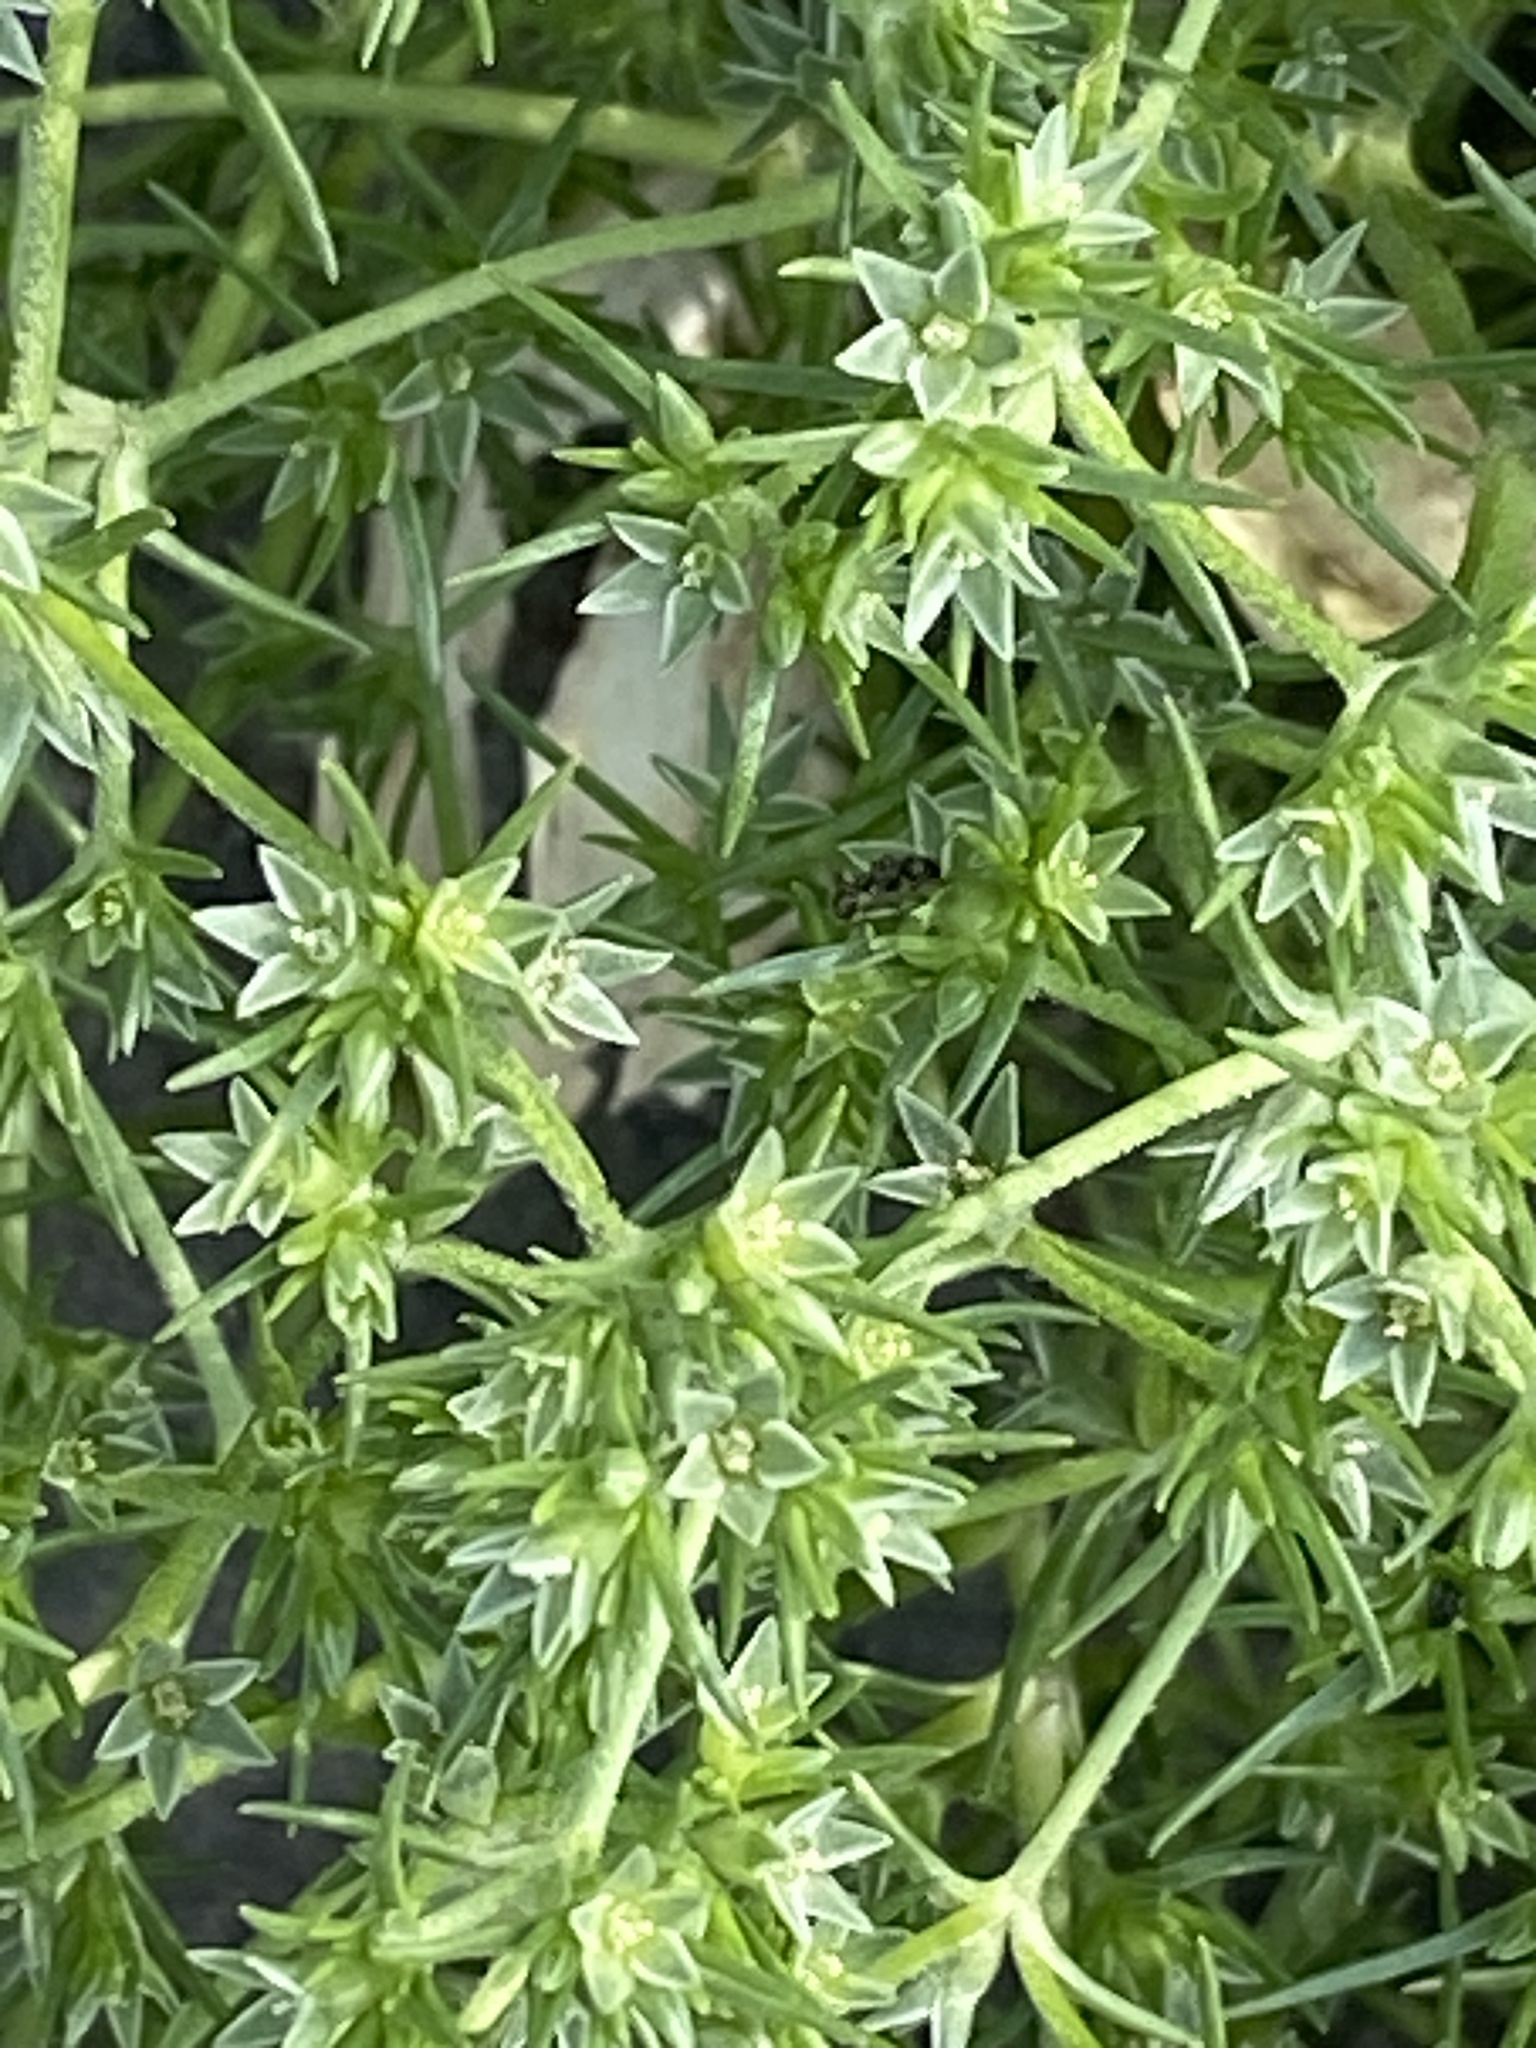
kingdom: Plantae
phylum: Tracheophyta
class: Magnoliopsida
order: Caryophyllales
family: Caryophyllaceae
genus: Scleranthus
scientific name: Scleranthus annuus
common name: Annual knawel
